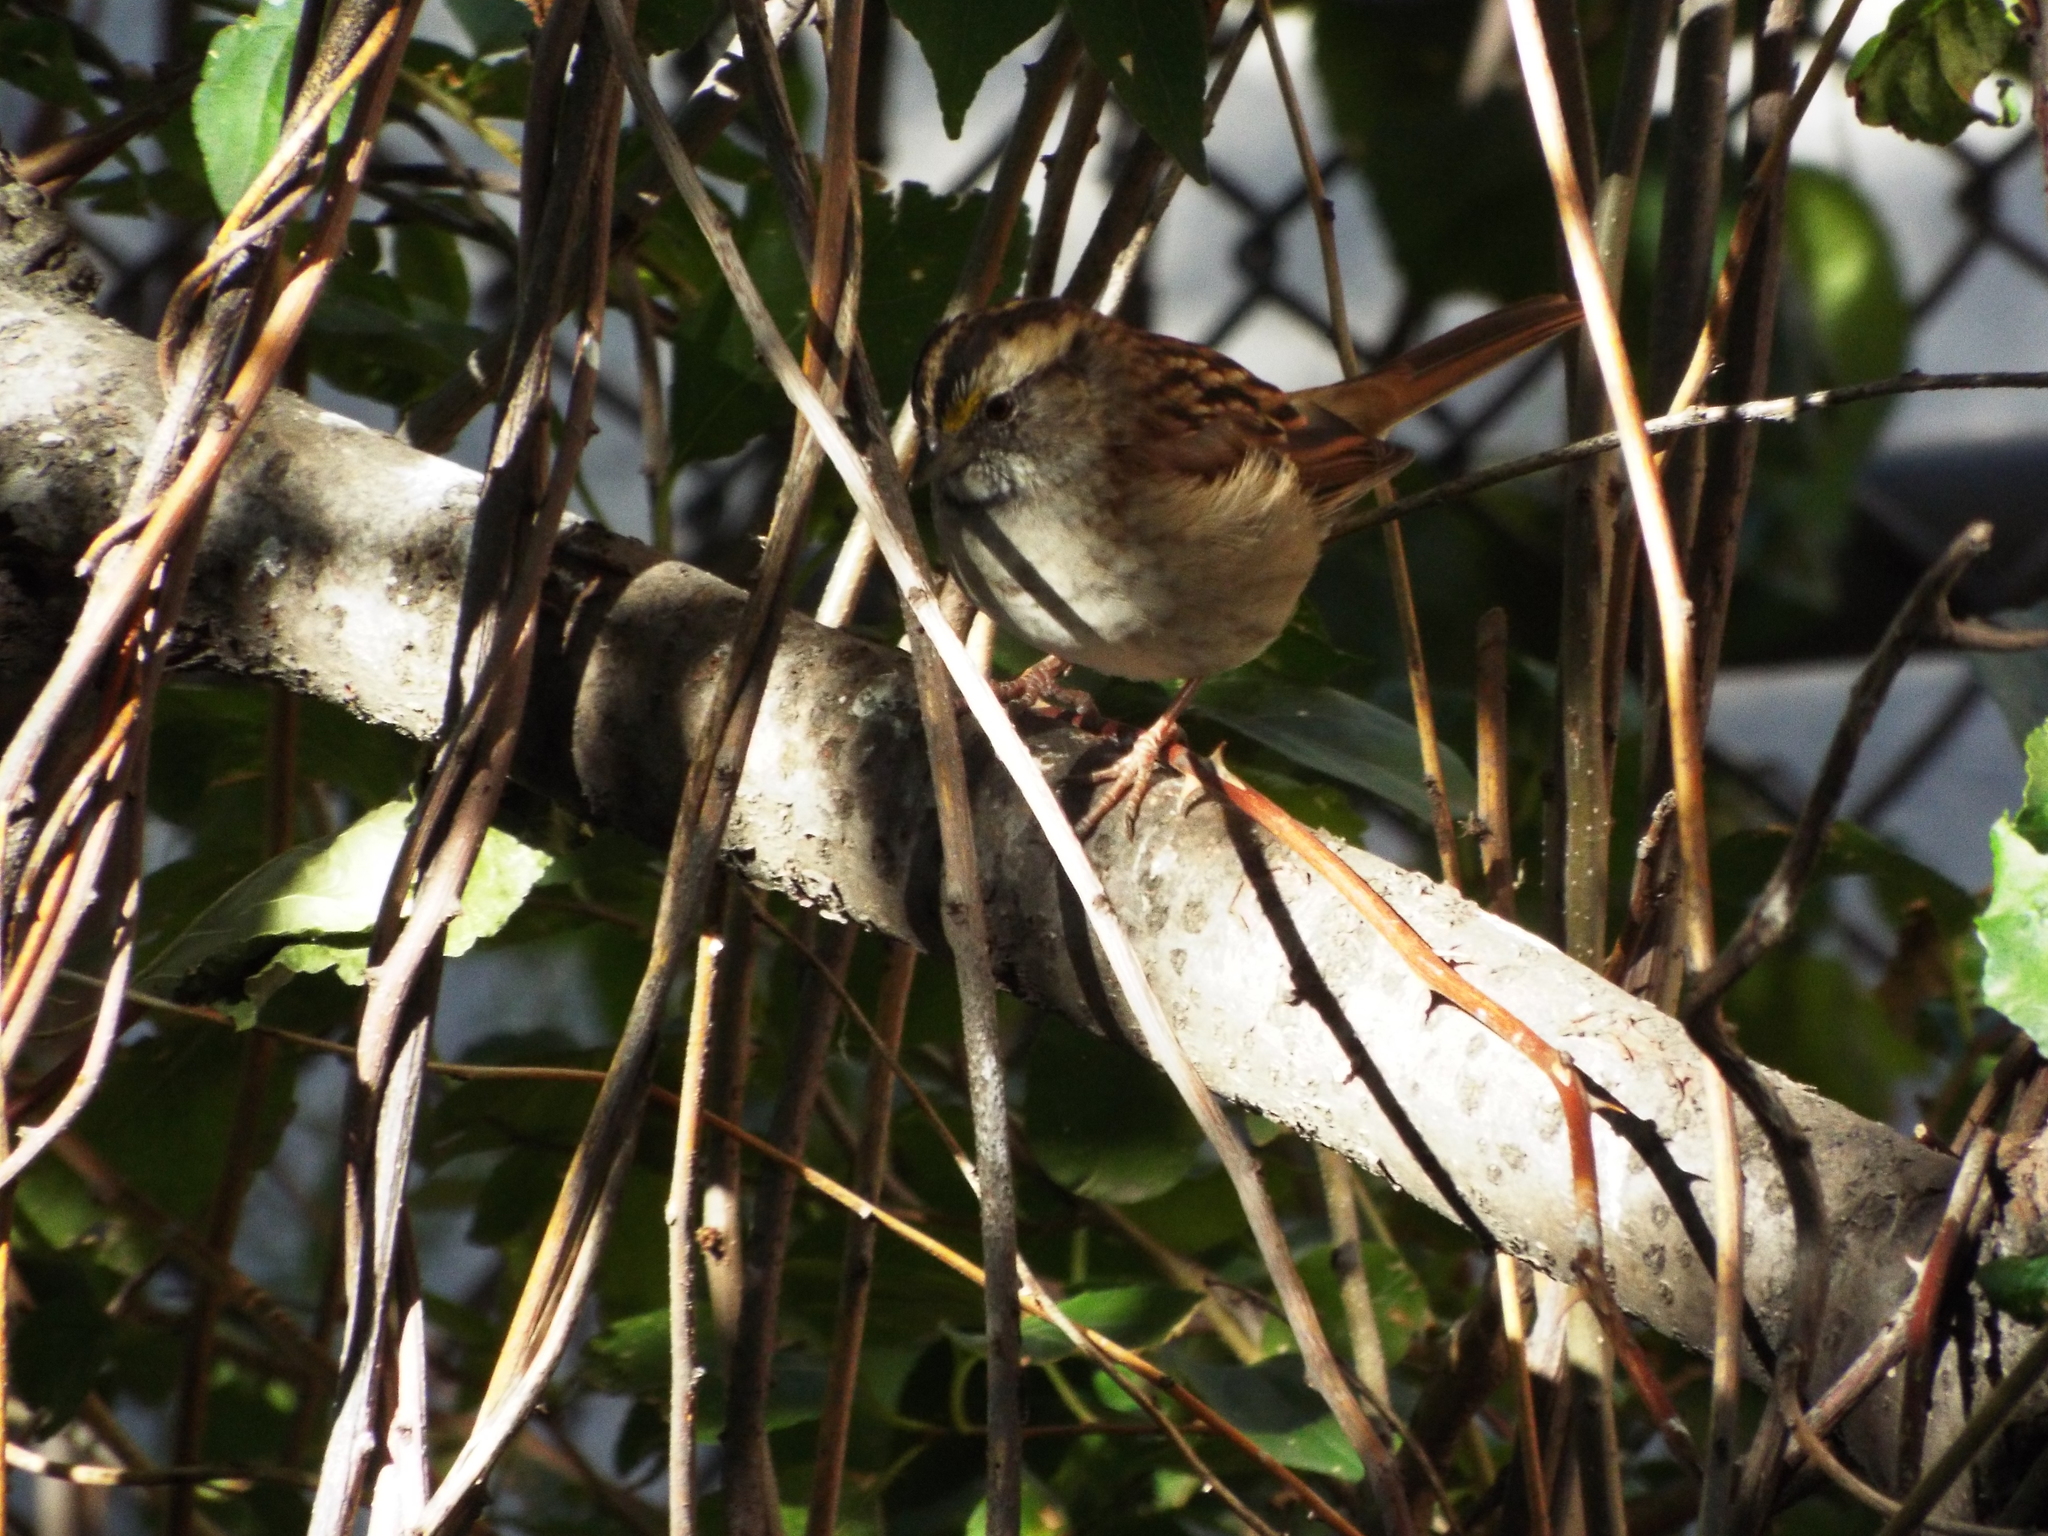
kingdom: Animalia
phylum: Chordata
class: Aves
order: Passeriformes
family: Passerellidae
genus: Zonotrichia
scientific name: Zonotrichia albicollis
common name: White-throated sparrow
